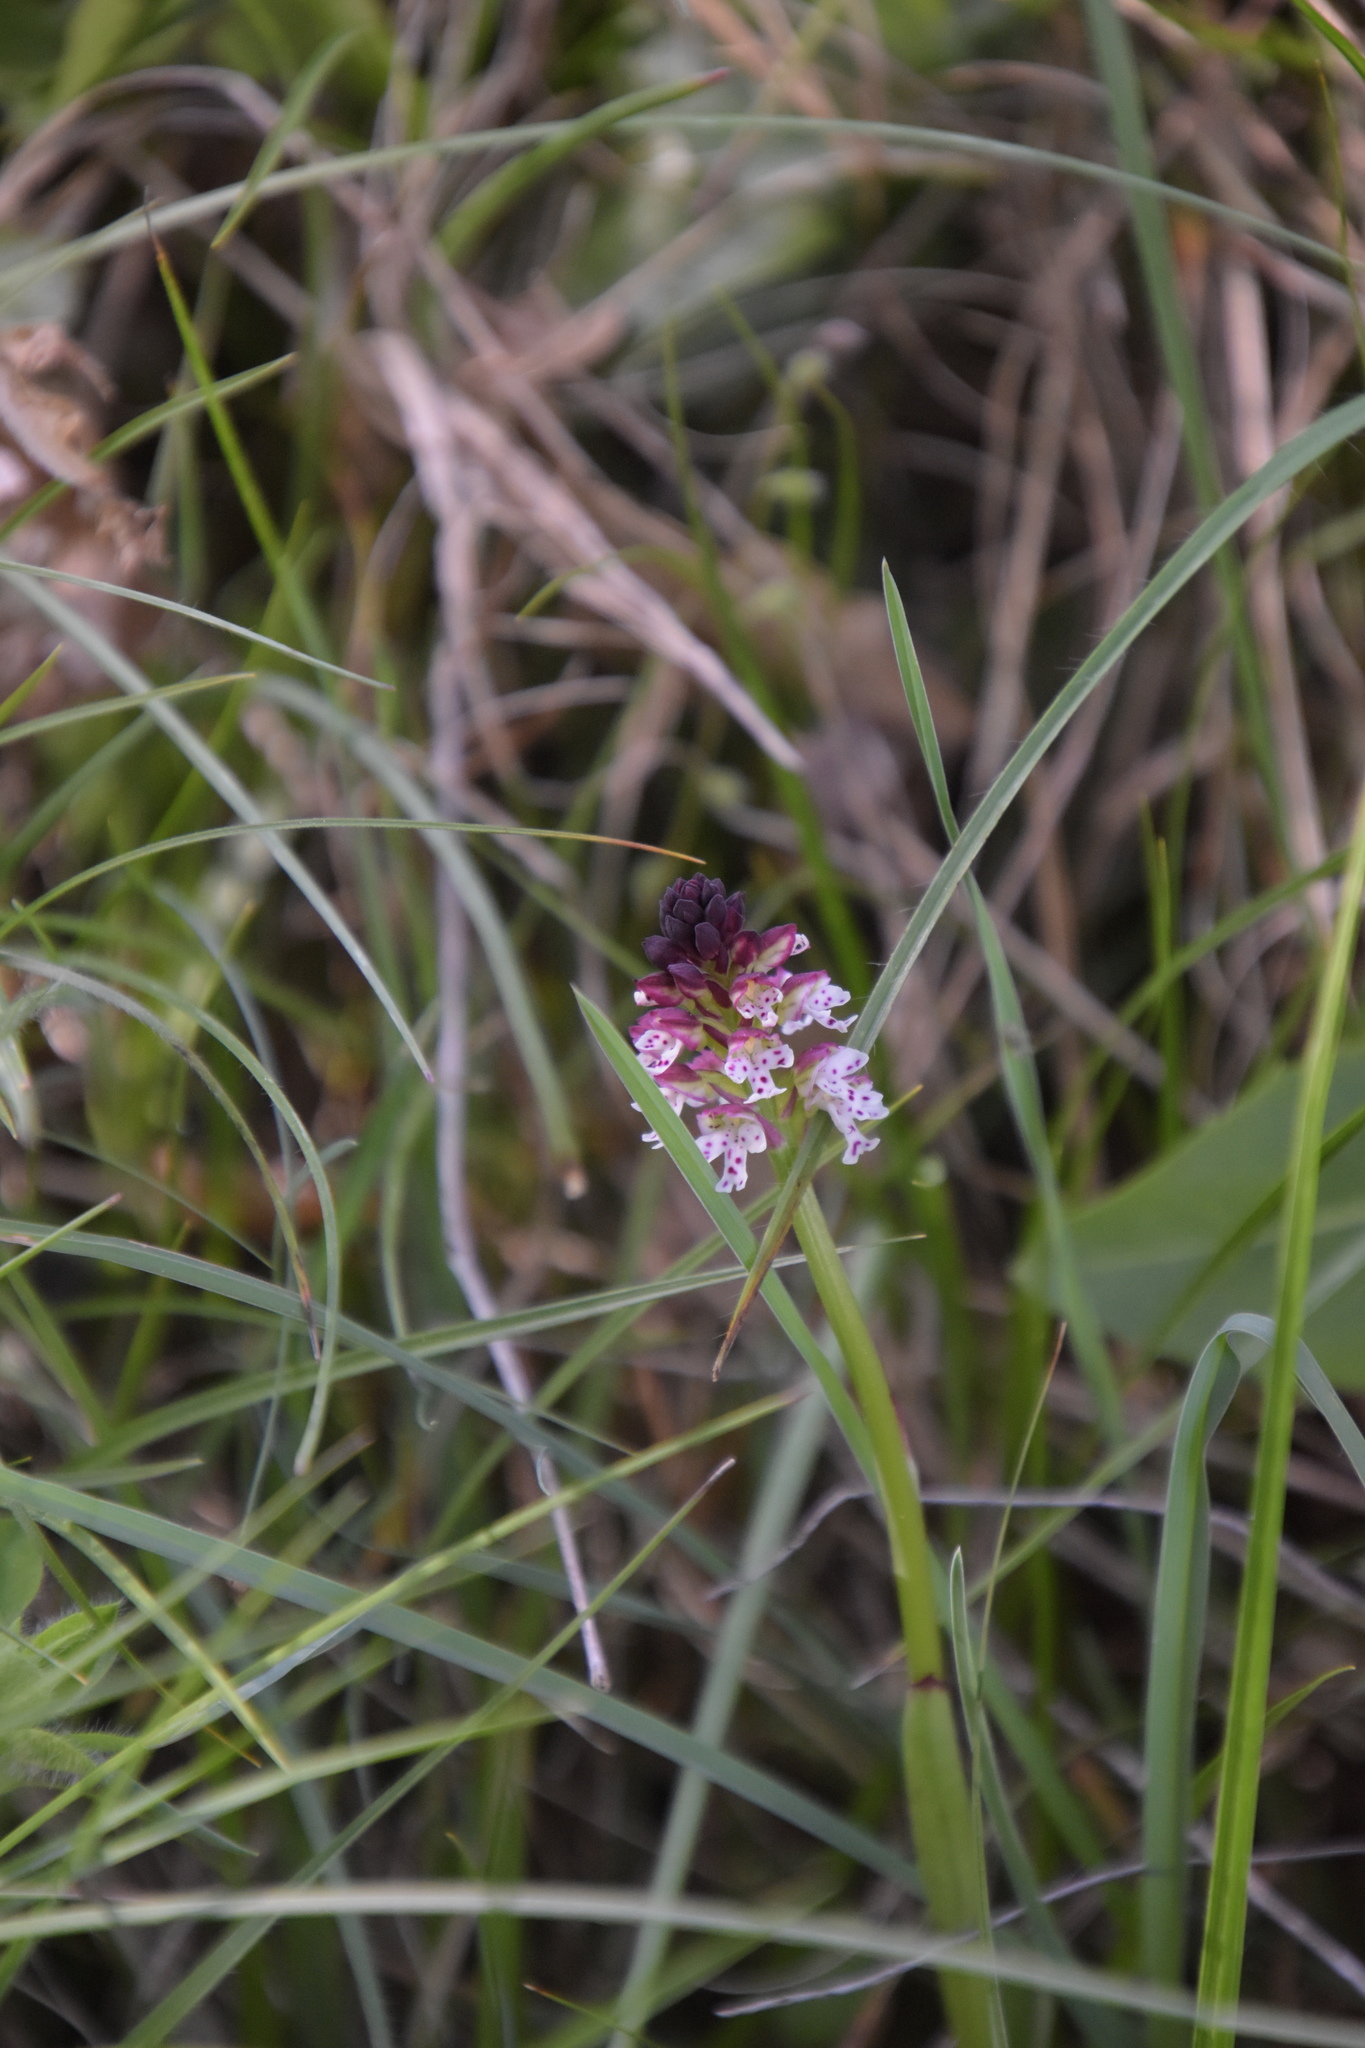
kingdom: Plantae
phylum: Tracheophyta
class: Liliopsida
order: Asparagales
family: Orchidaceae
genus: Neotinea
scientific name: Neotinea ustulata
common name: Burnt orchid
